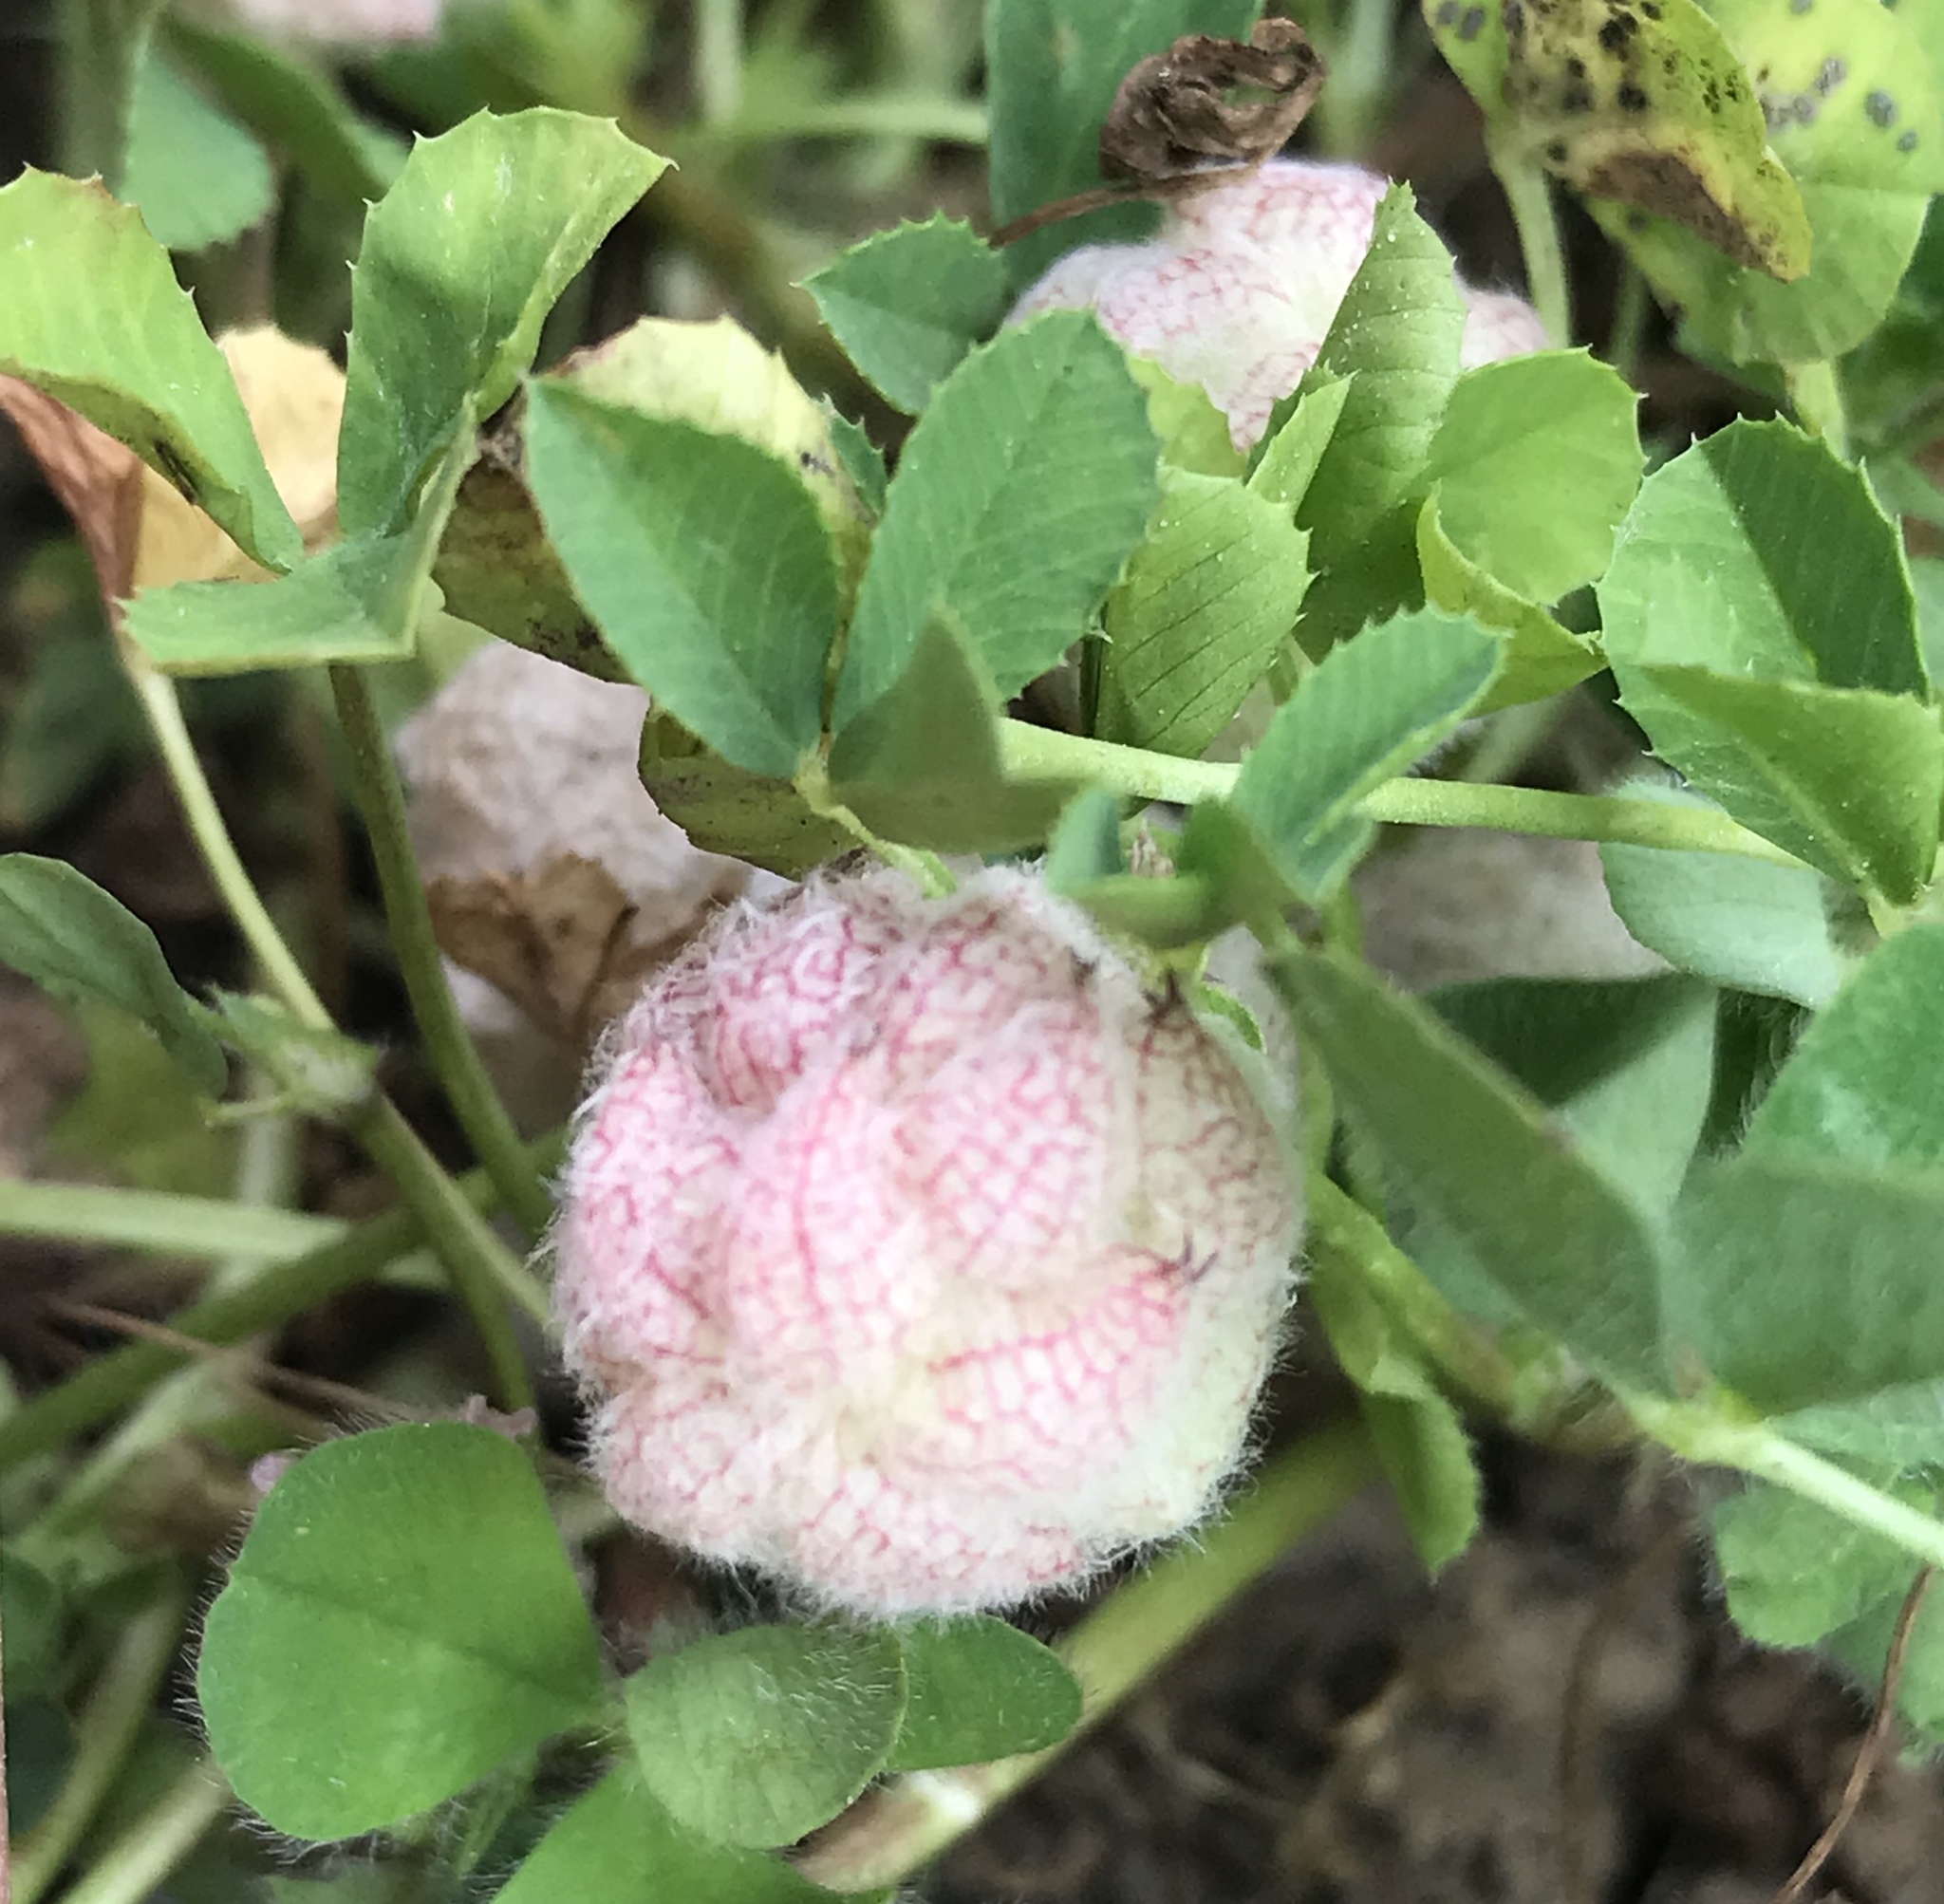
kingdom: Plantae
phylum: Tracheophyta
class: Magnoliopsida
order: Fabales
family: Fabaceae
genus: Trifolium
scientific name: Trifolium fragiferum
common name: Strawberry clover
